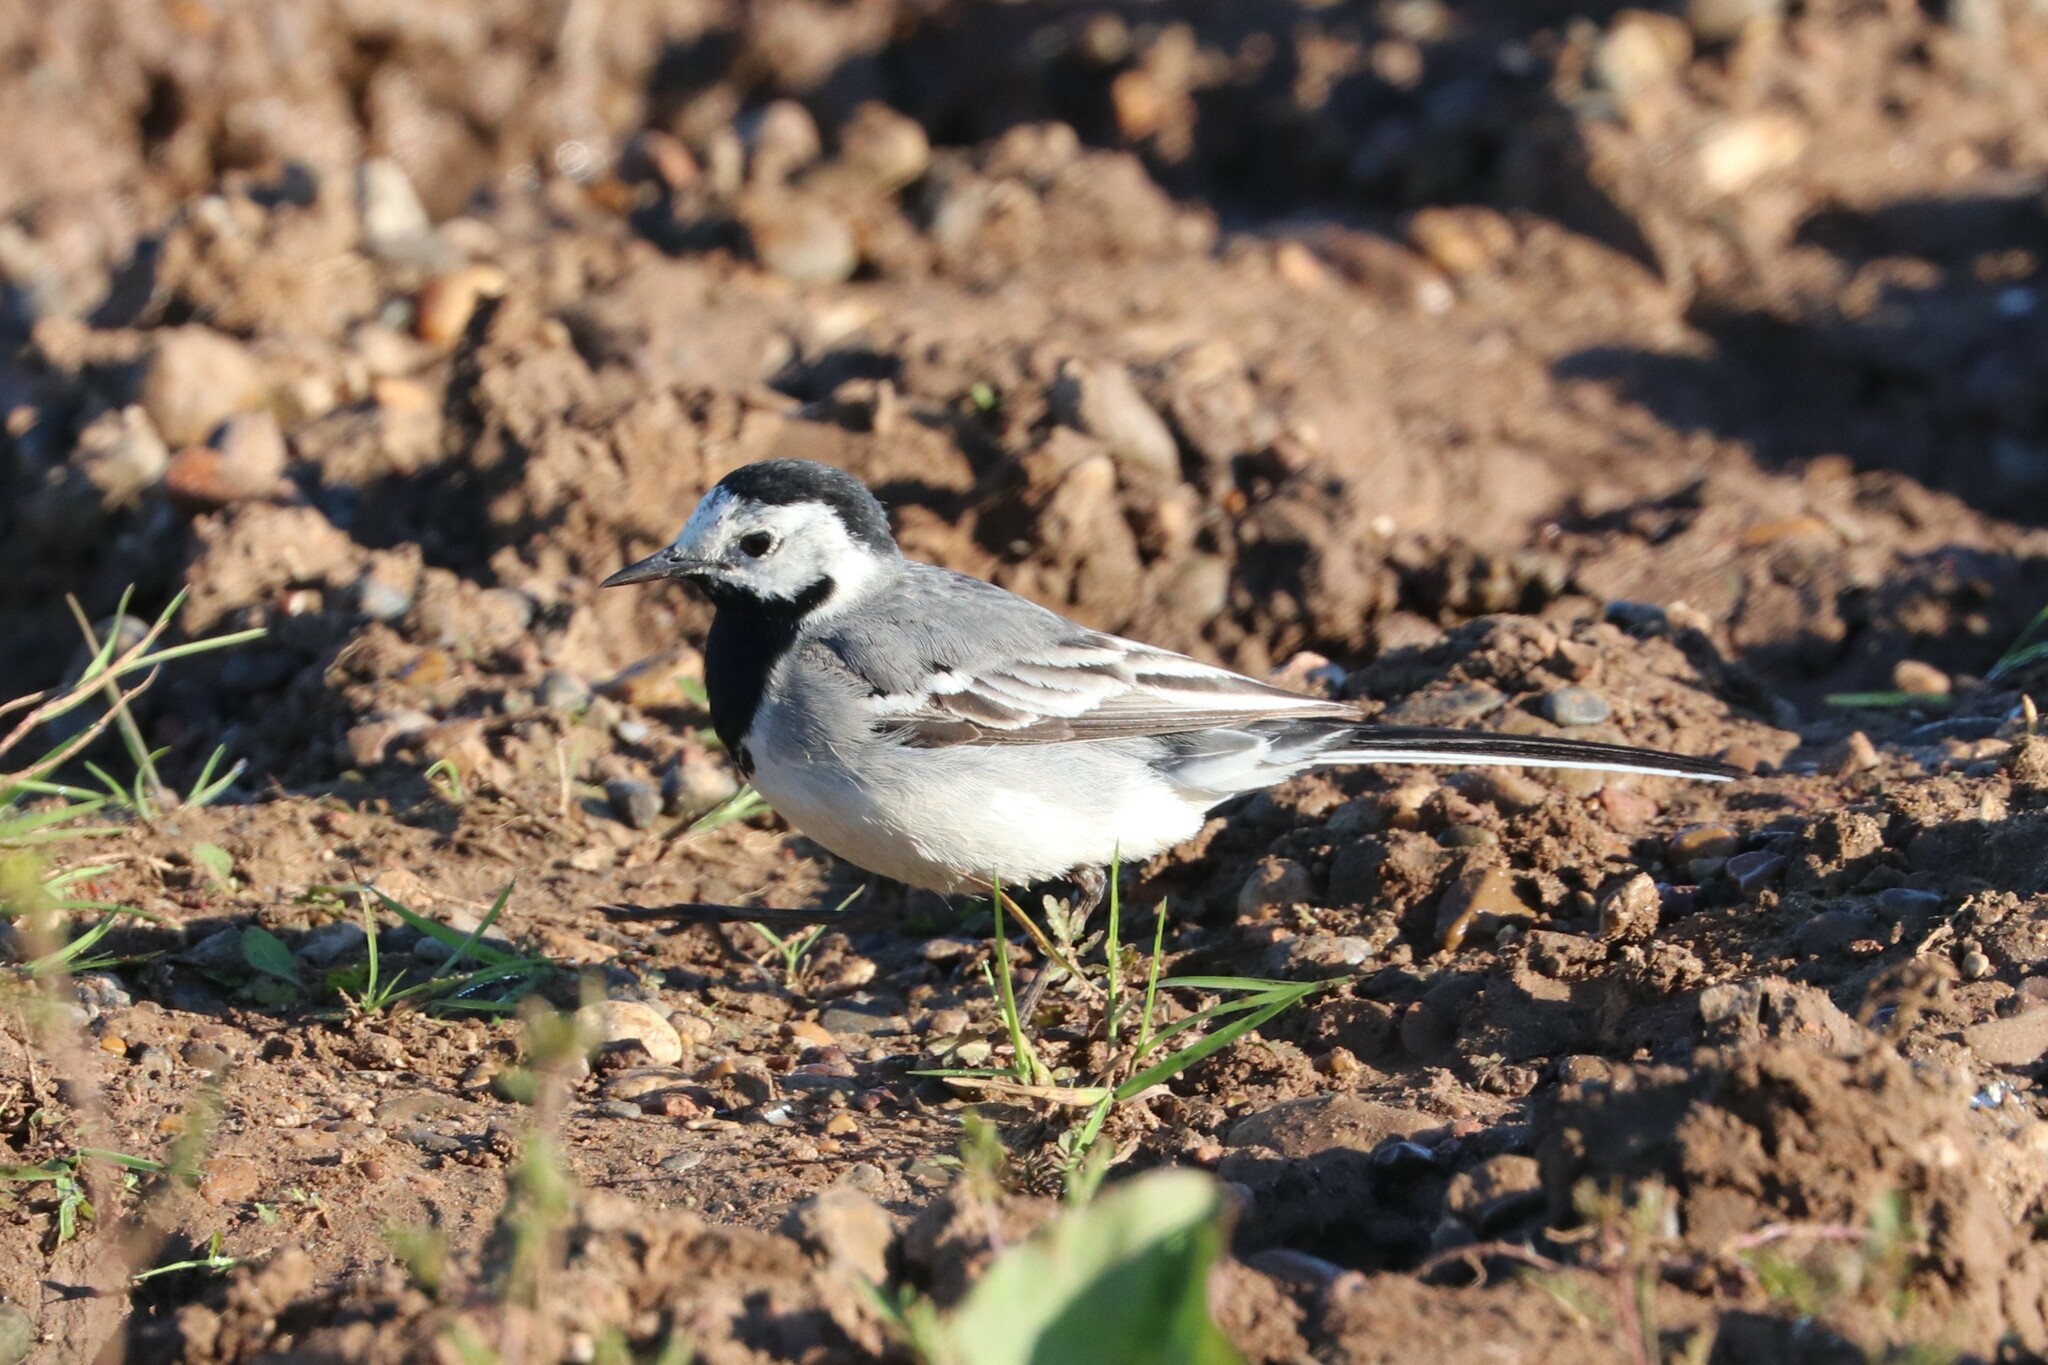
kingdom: Animalia
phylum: Chordata
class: Aves
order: Passeriformes
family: Motacillidae
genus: Motacilla
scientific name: Motacilla alba
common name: White wagtail
